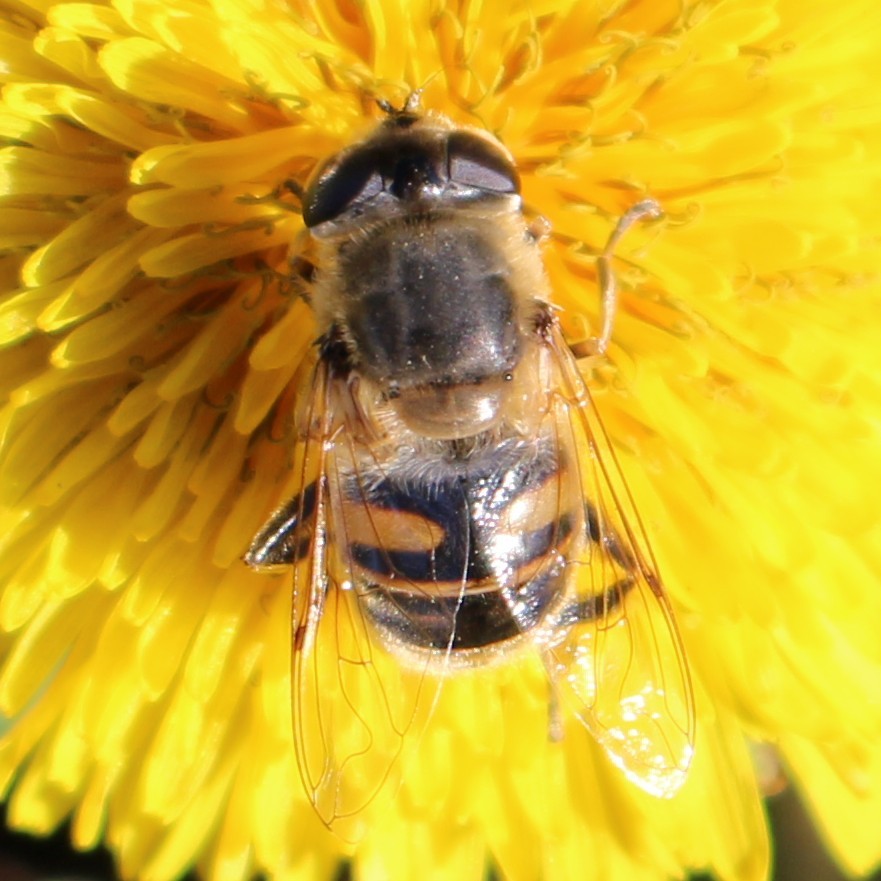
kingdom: Animalia
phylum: Arthropoda
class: Insecta
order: Diptera
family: Syrphidae
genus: Eristalis
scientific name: Eristalis tenax
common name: Drone fly
